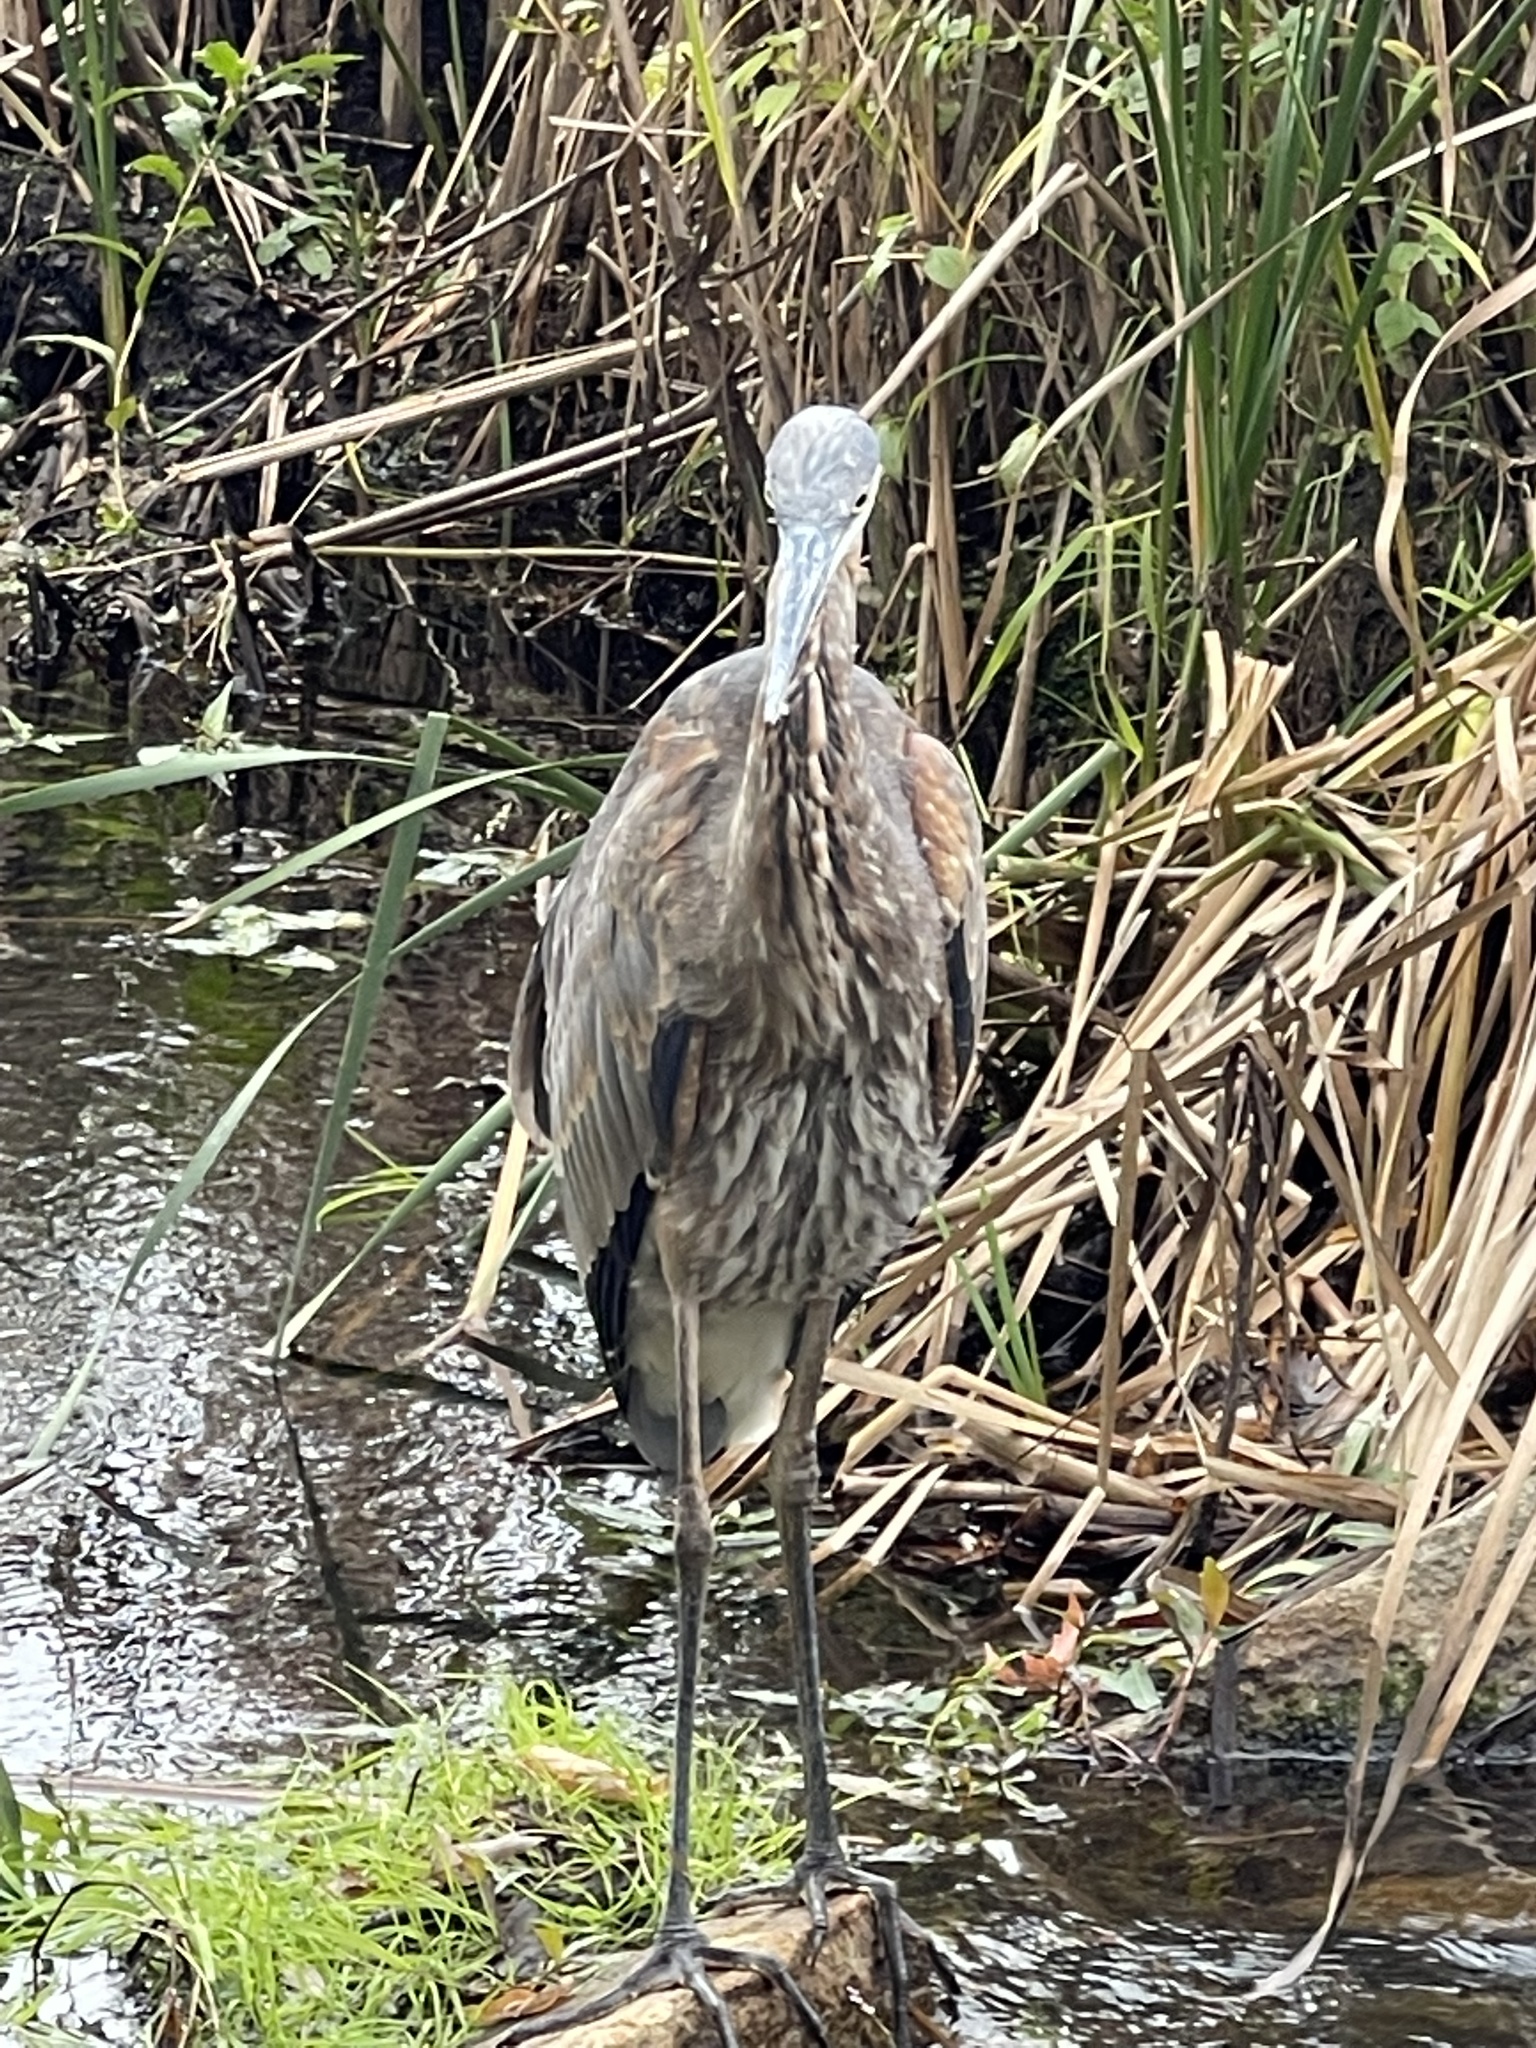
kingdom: Animalia
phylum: Chordata
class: Aves
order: Pelecaniformes
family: Ardeidae
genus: Ardea
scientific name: Ardea herodias
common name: Great blue heron
